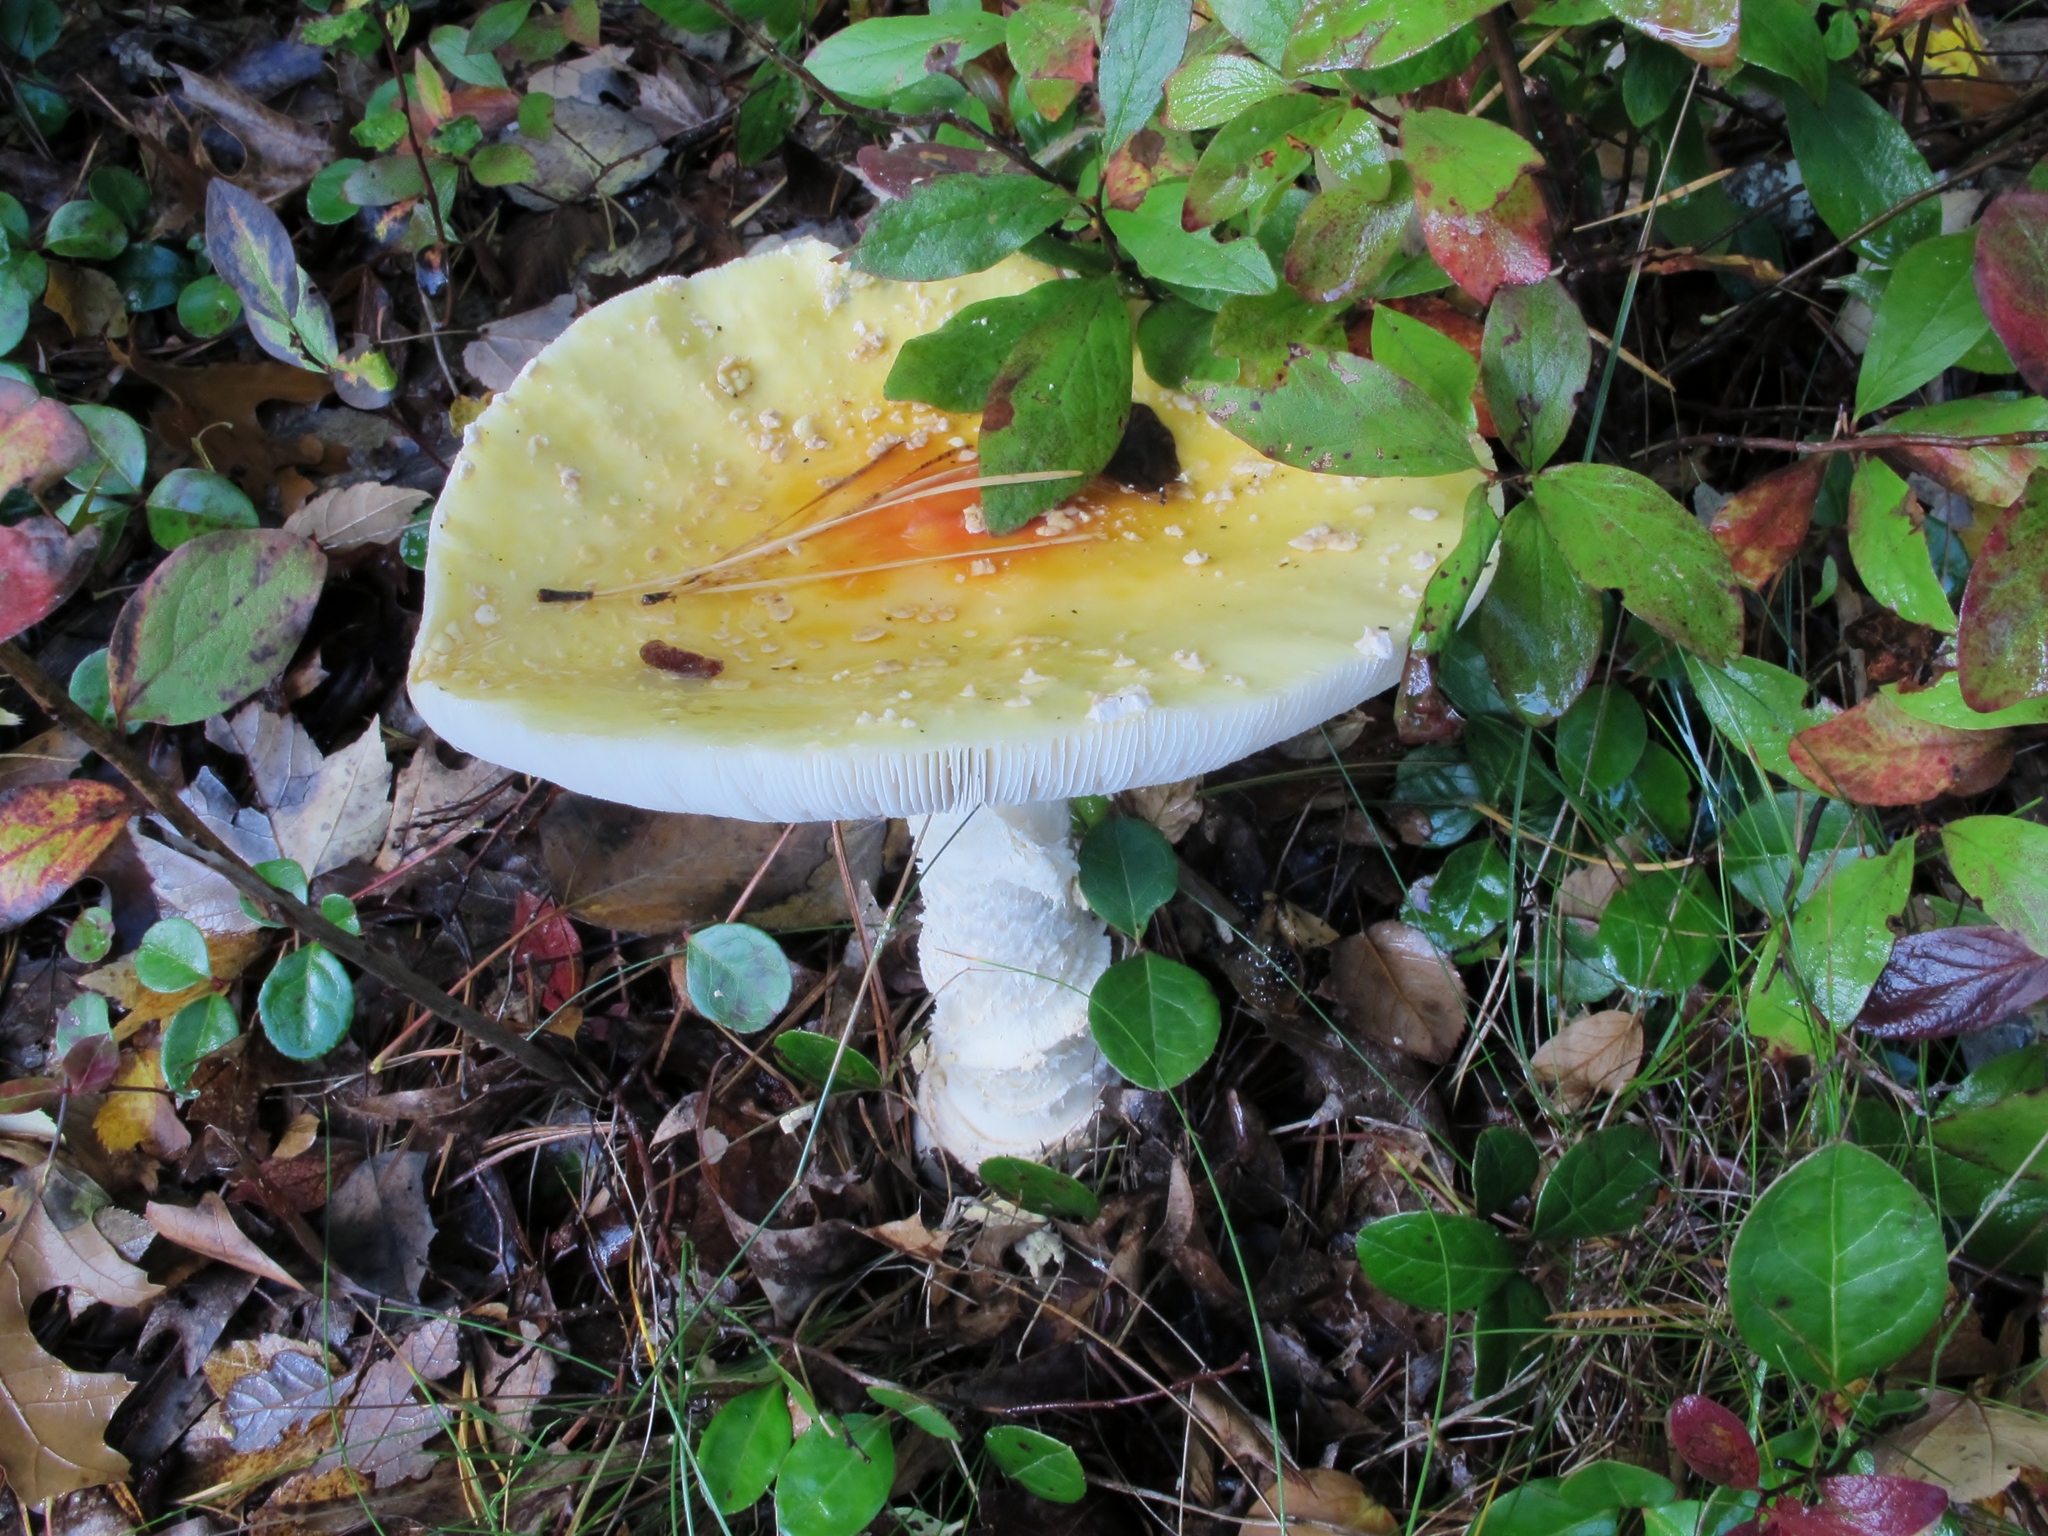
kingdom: Fungi
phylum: Basidiomycota
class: Agaricomycetes
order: Agaricales
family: Amanitaceae
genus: Amanita
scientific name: Amanita muscaria
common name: Fly agaric
